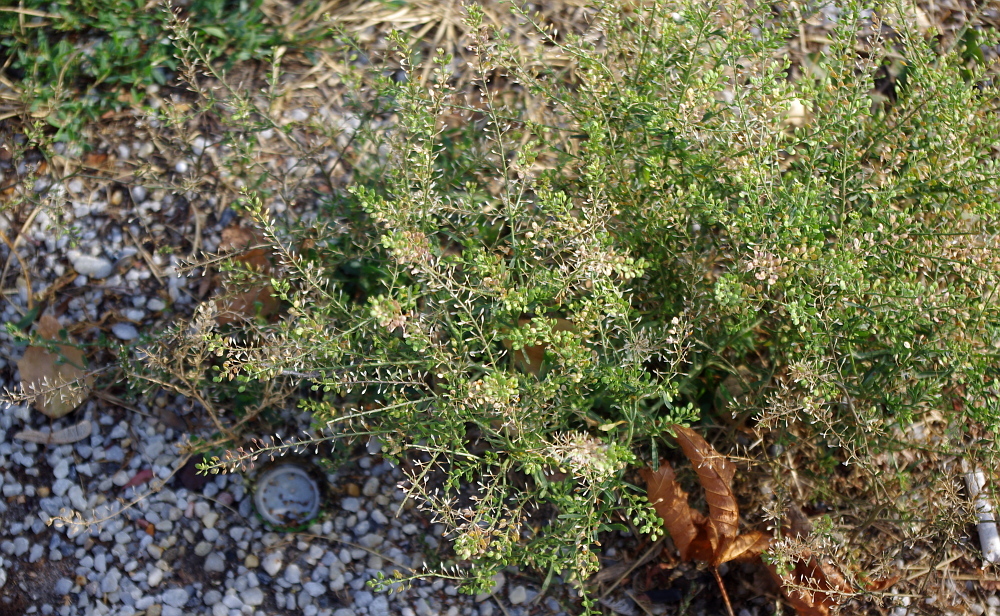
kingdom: Plantae
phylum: Tracheophyta
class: Magnoliopsida
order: Brassicales
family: Brassicaceae
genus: Lepidium
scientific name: Lepidium ruderale
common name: Narrow-leaved pepperwort
